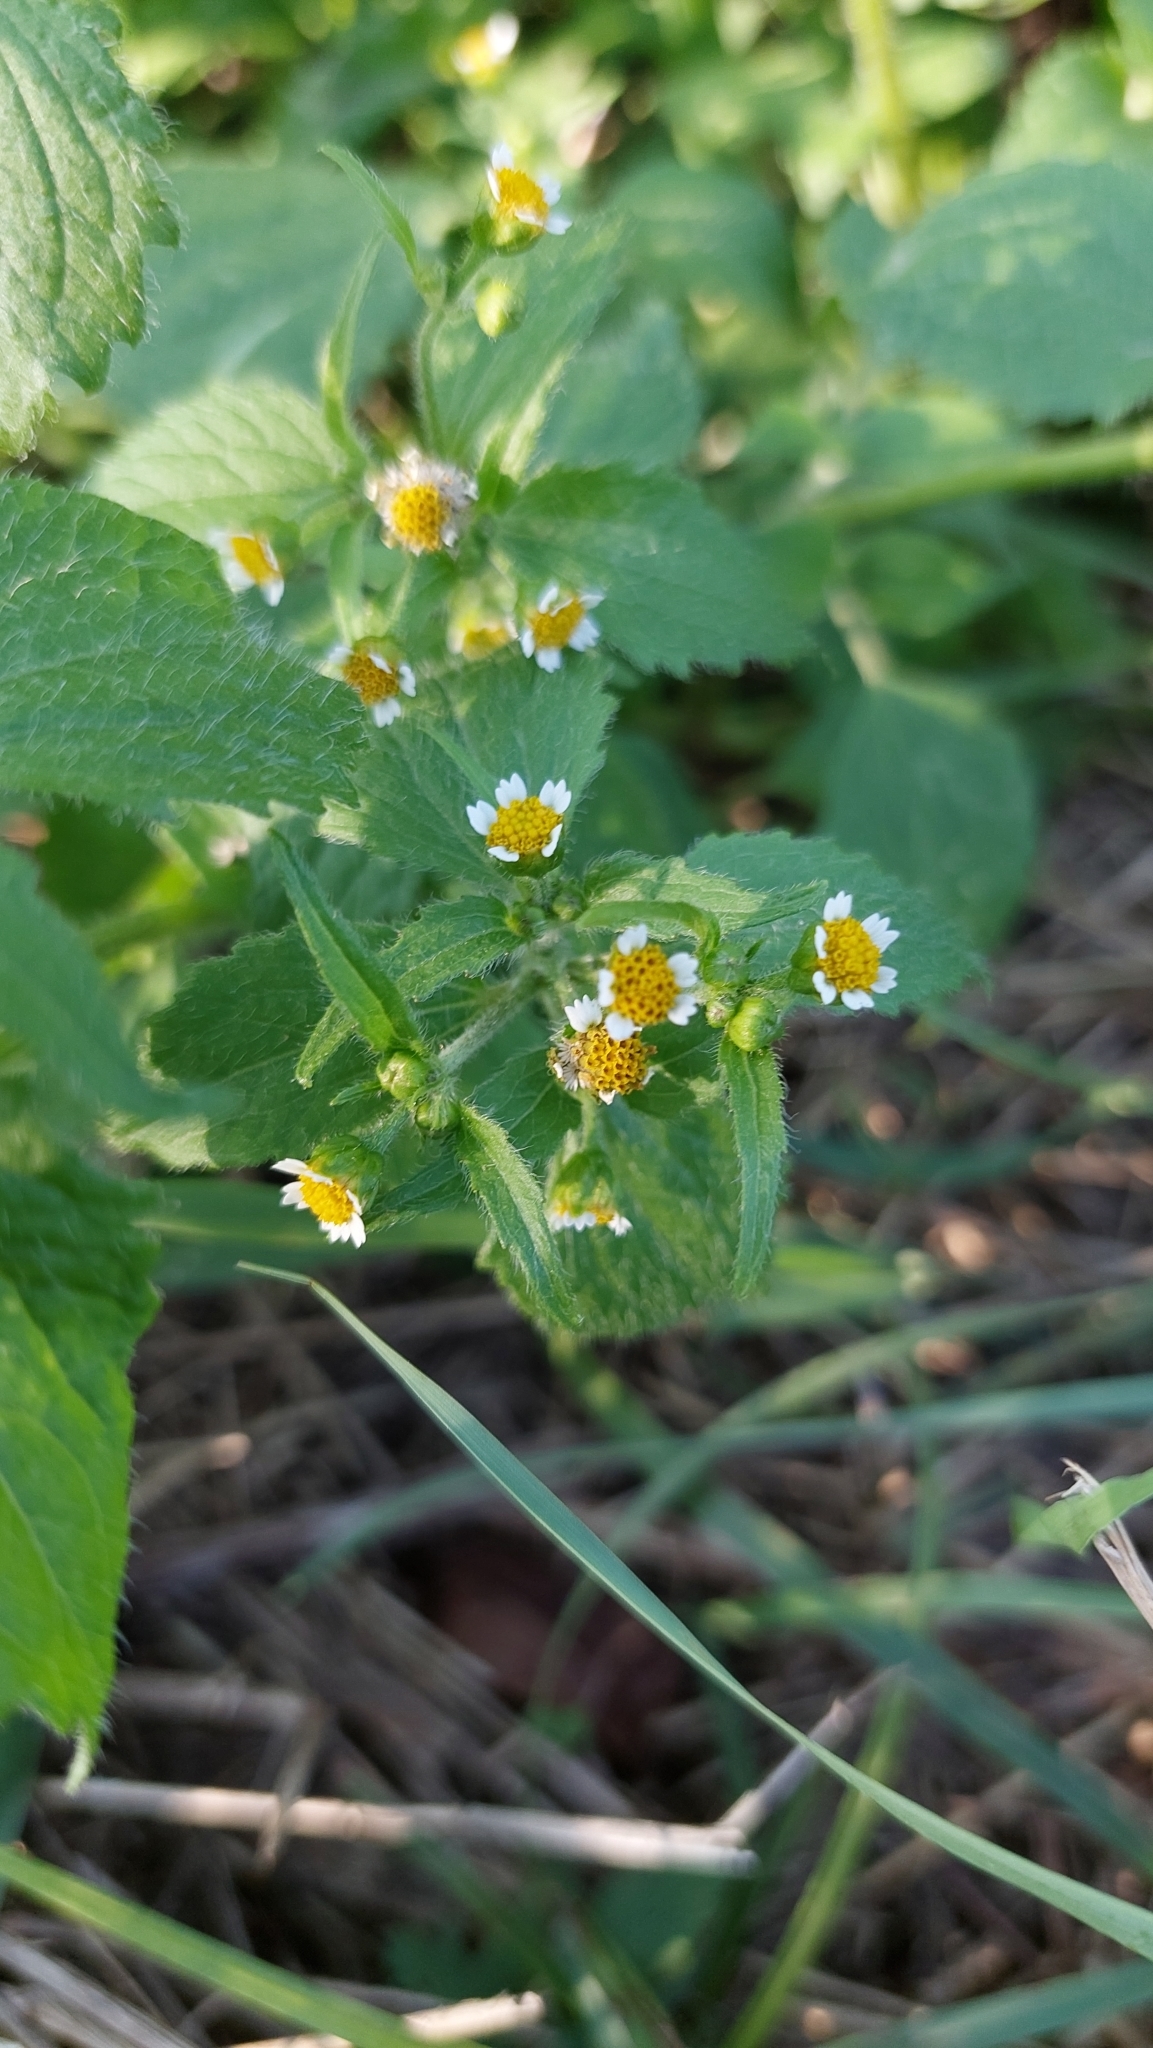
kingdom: Plantae
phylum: Tracheophyta
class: Magnoliopsida
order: Asterales
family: Asteraceae
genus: Galinsoga
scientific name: Galinsoga quadriradiata
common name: Shaggy soldier
